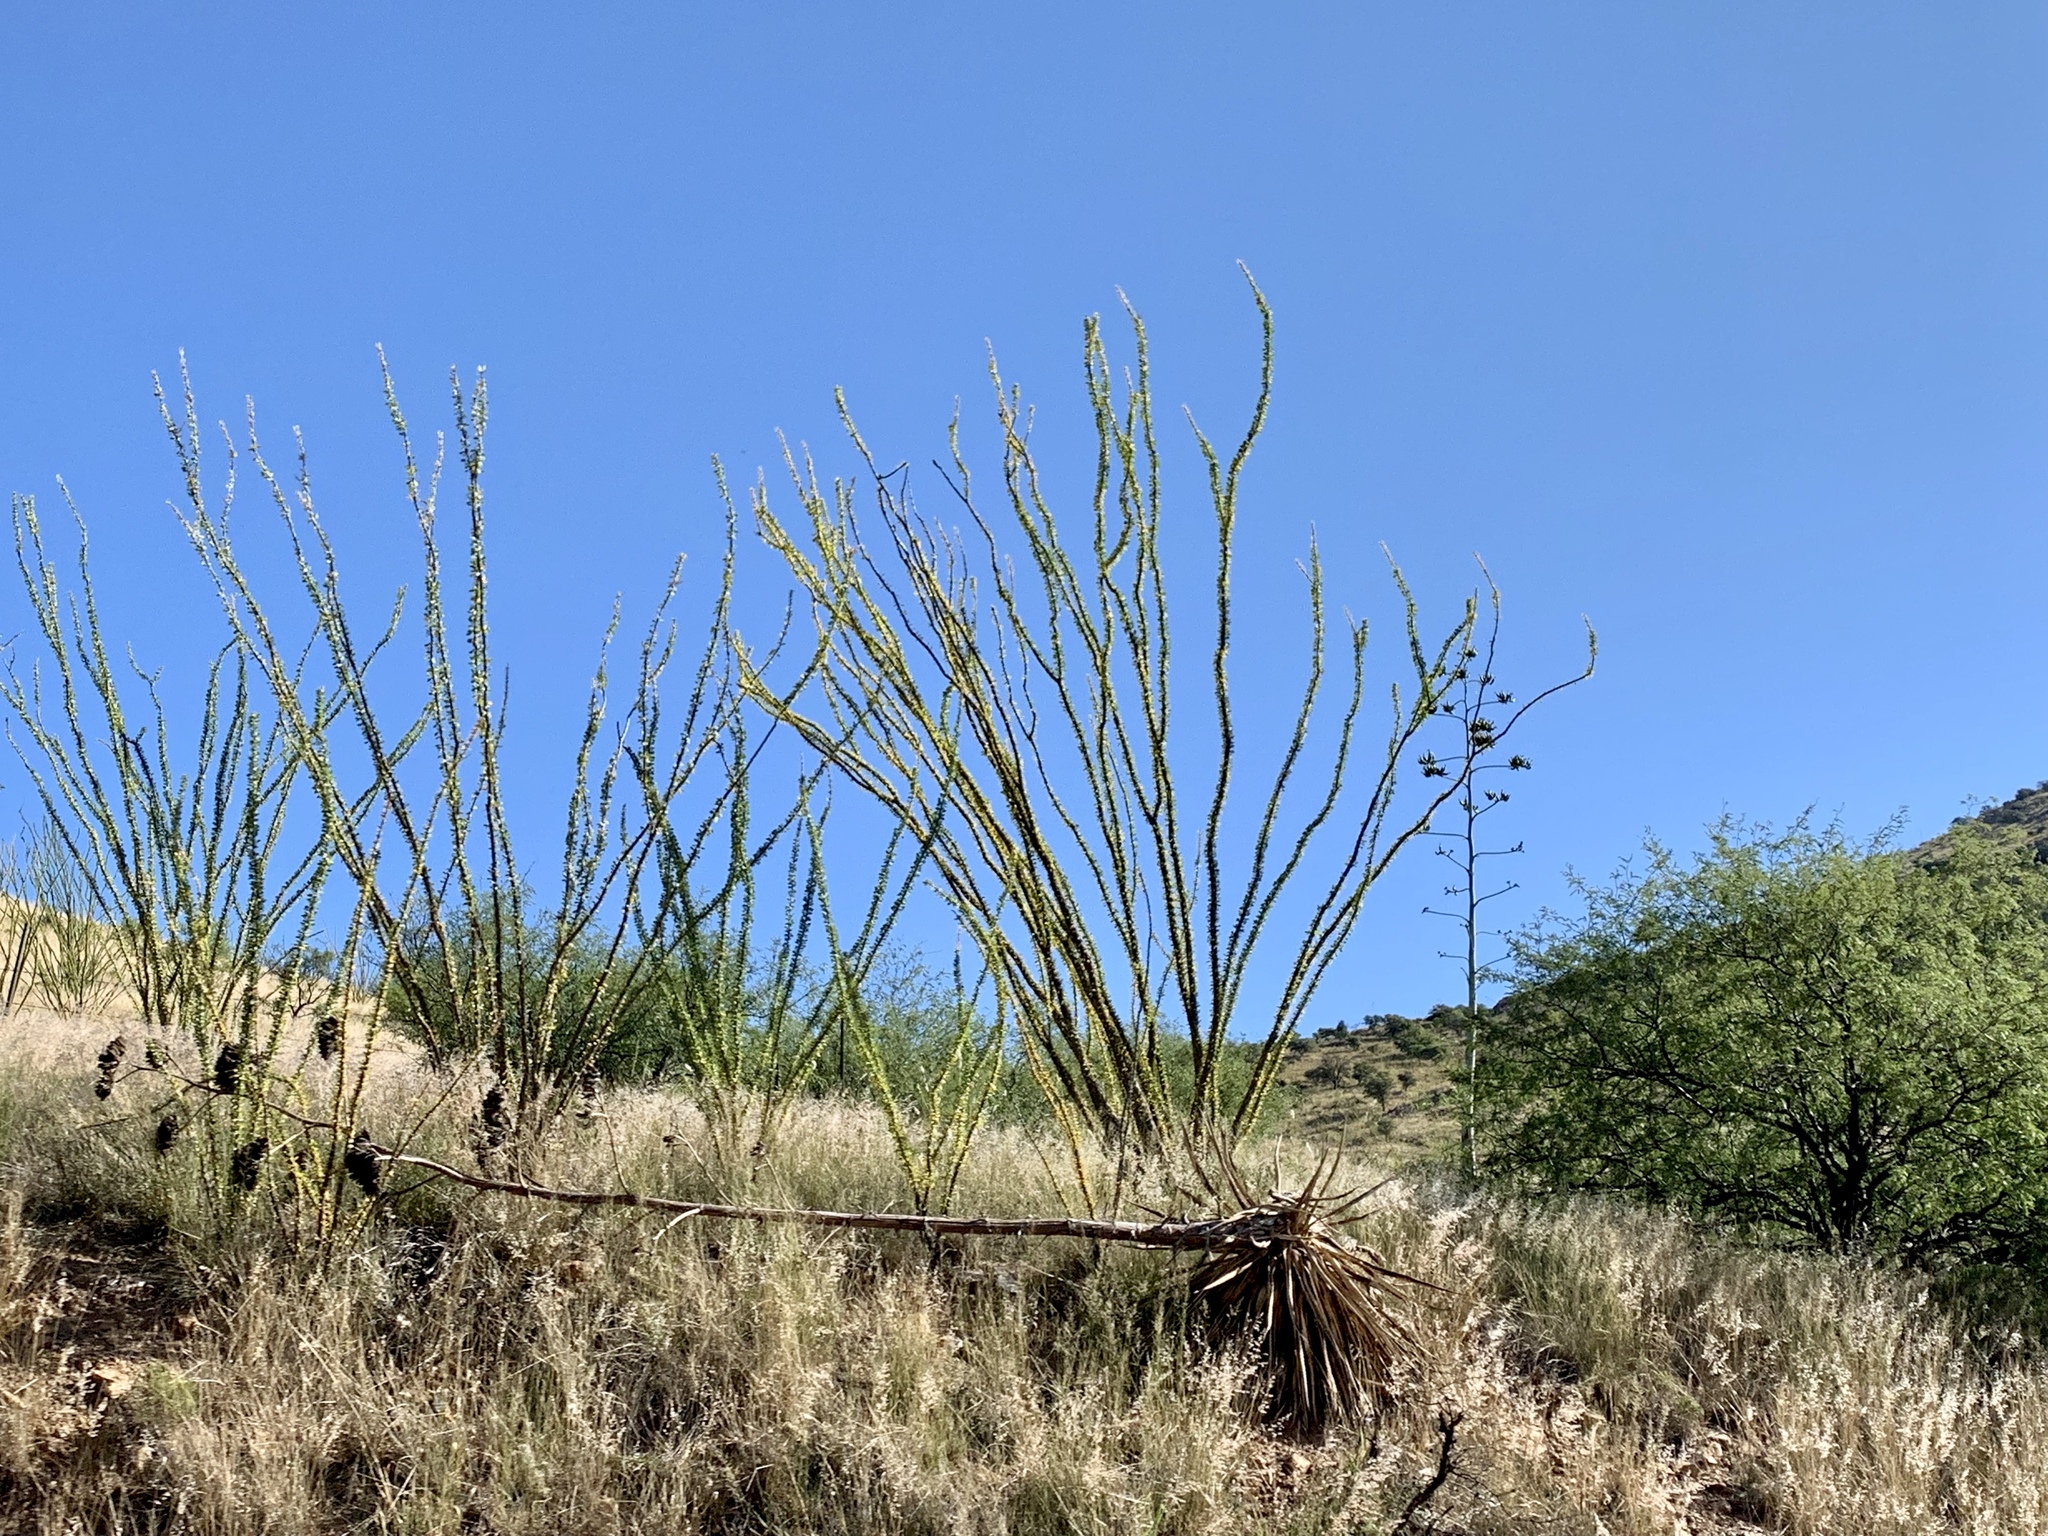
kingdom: Plantae
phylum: Tracheophyta
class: Magnoliopsida
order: Ericales
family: Fouquieriaceae
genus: Fouquieria
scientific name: Fouquieria splendens
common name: Vine-cactus
